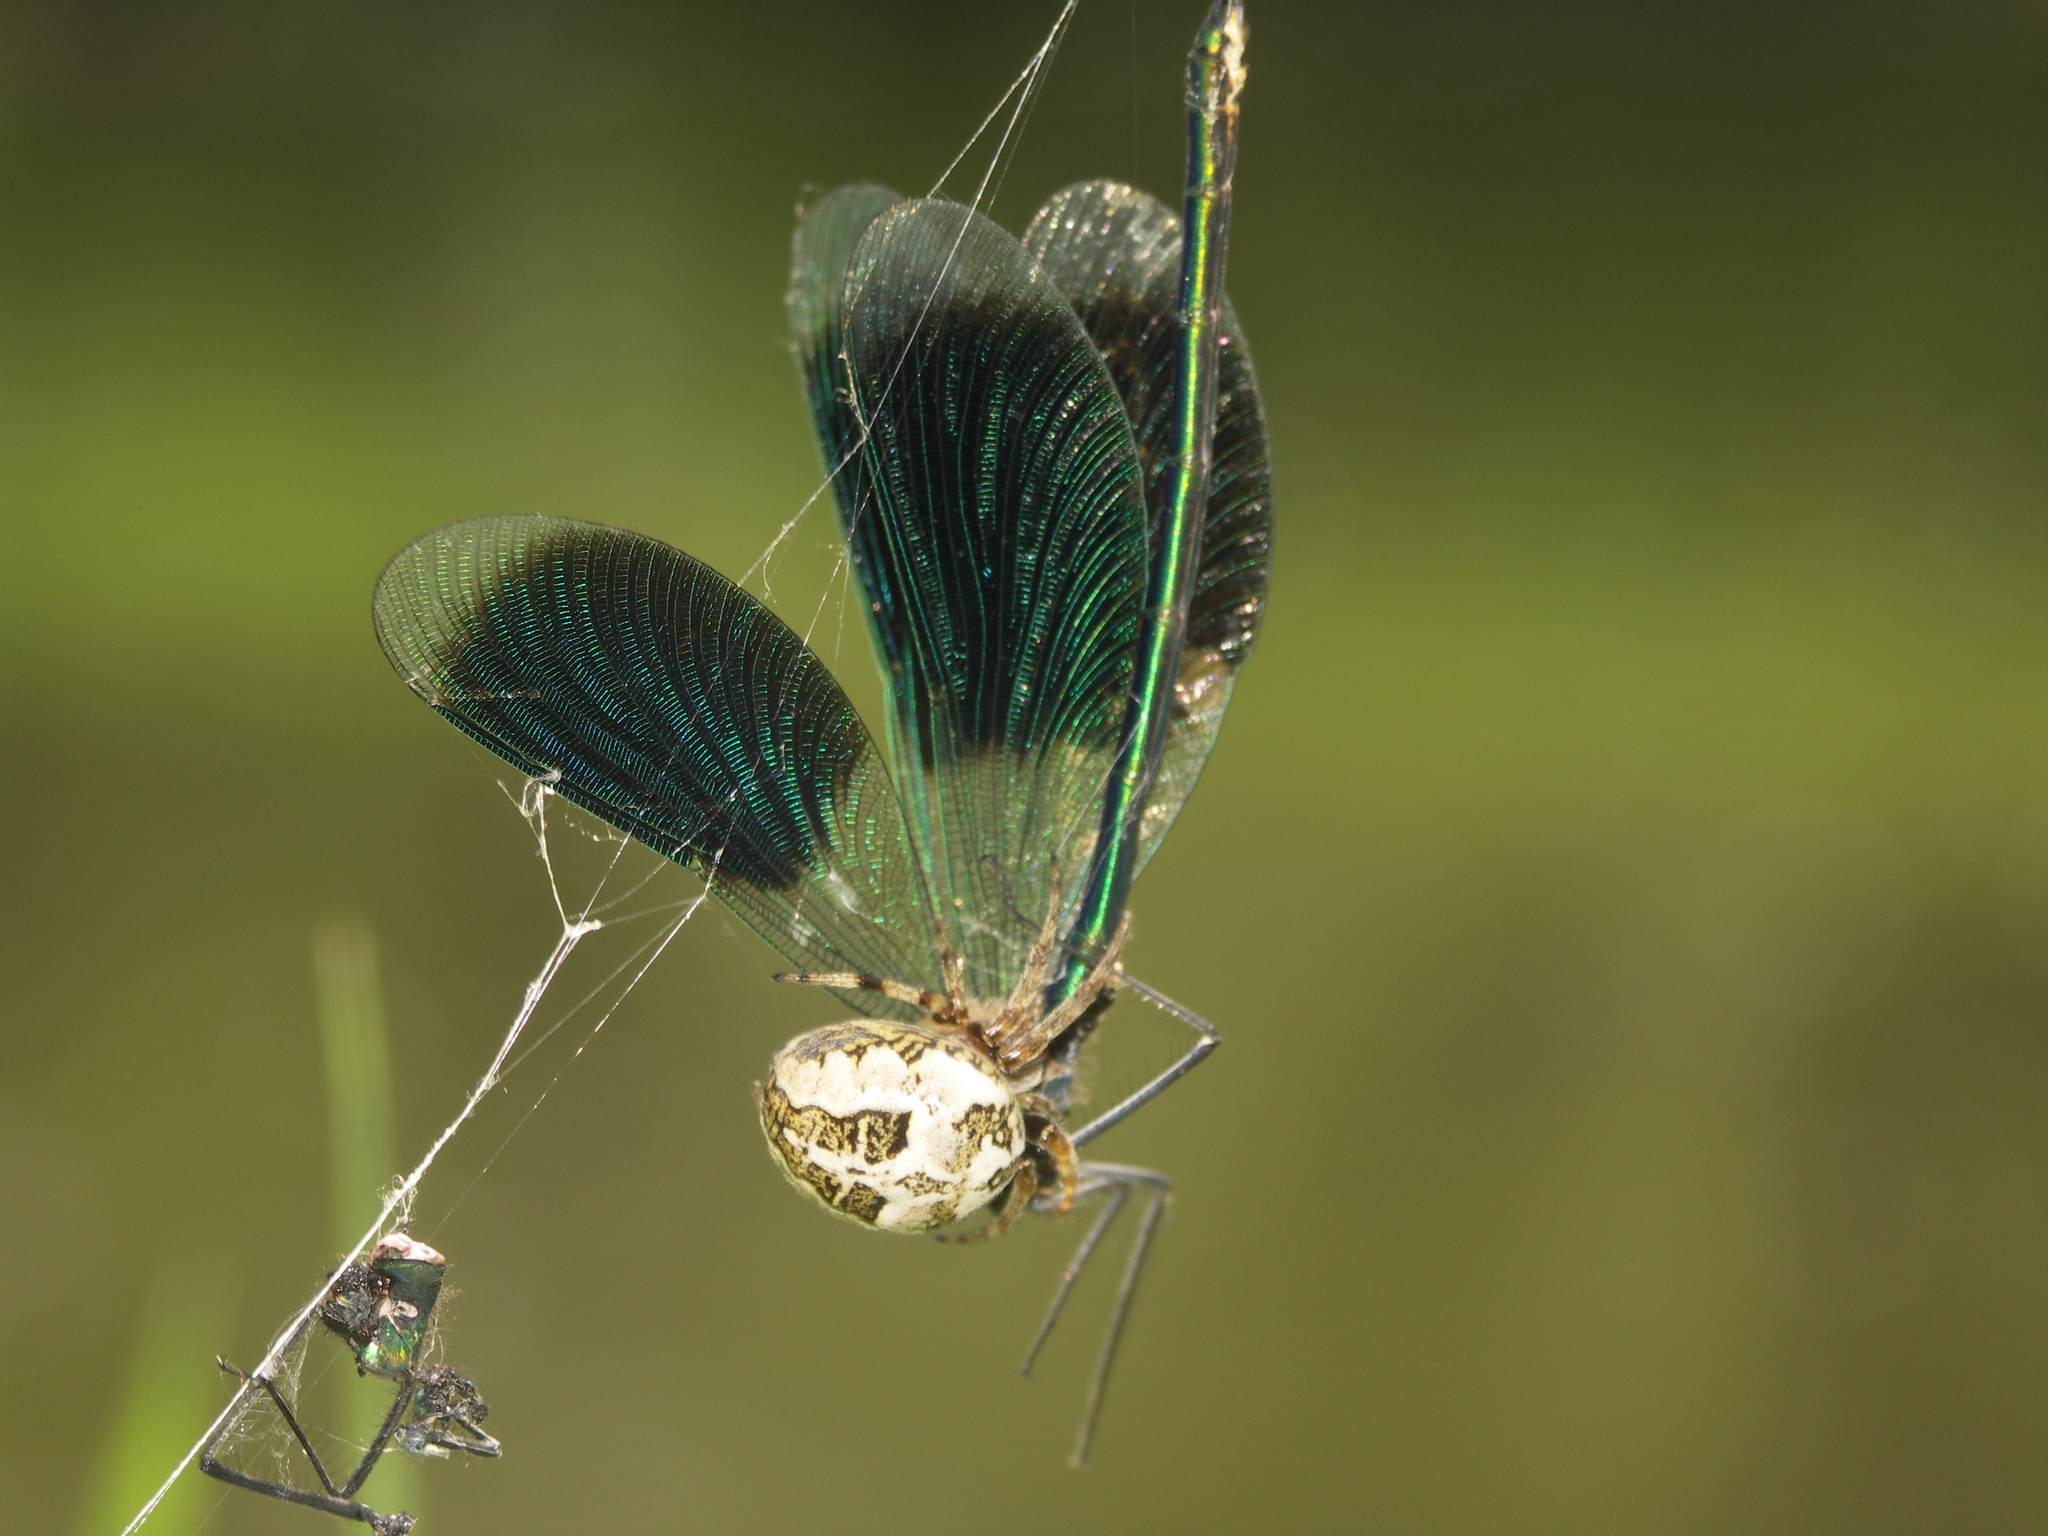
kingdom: Animalia
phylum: Arthropoda
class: Insecta
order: Odonata
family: Calopterygidae
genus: Calopteryx
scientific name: Calopteryx splendens
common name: Banded demoiselle
